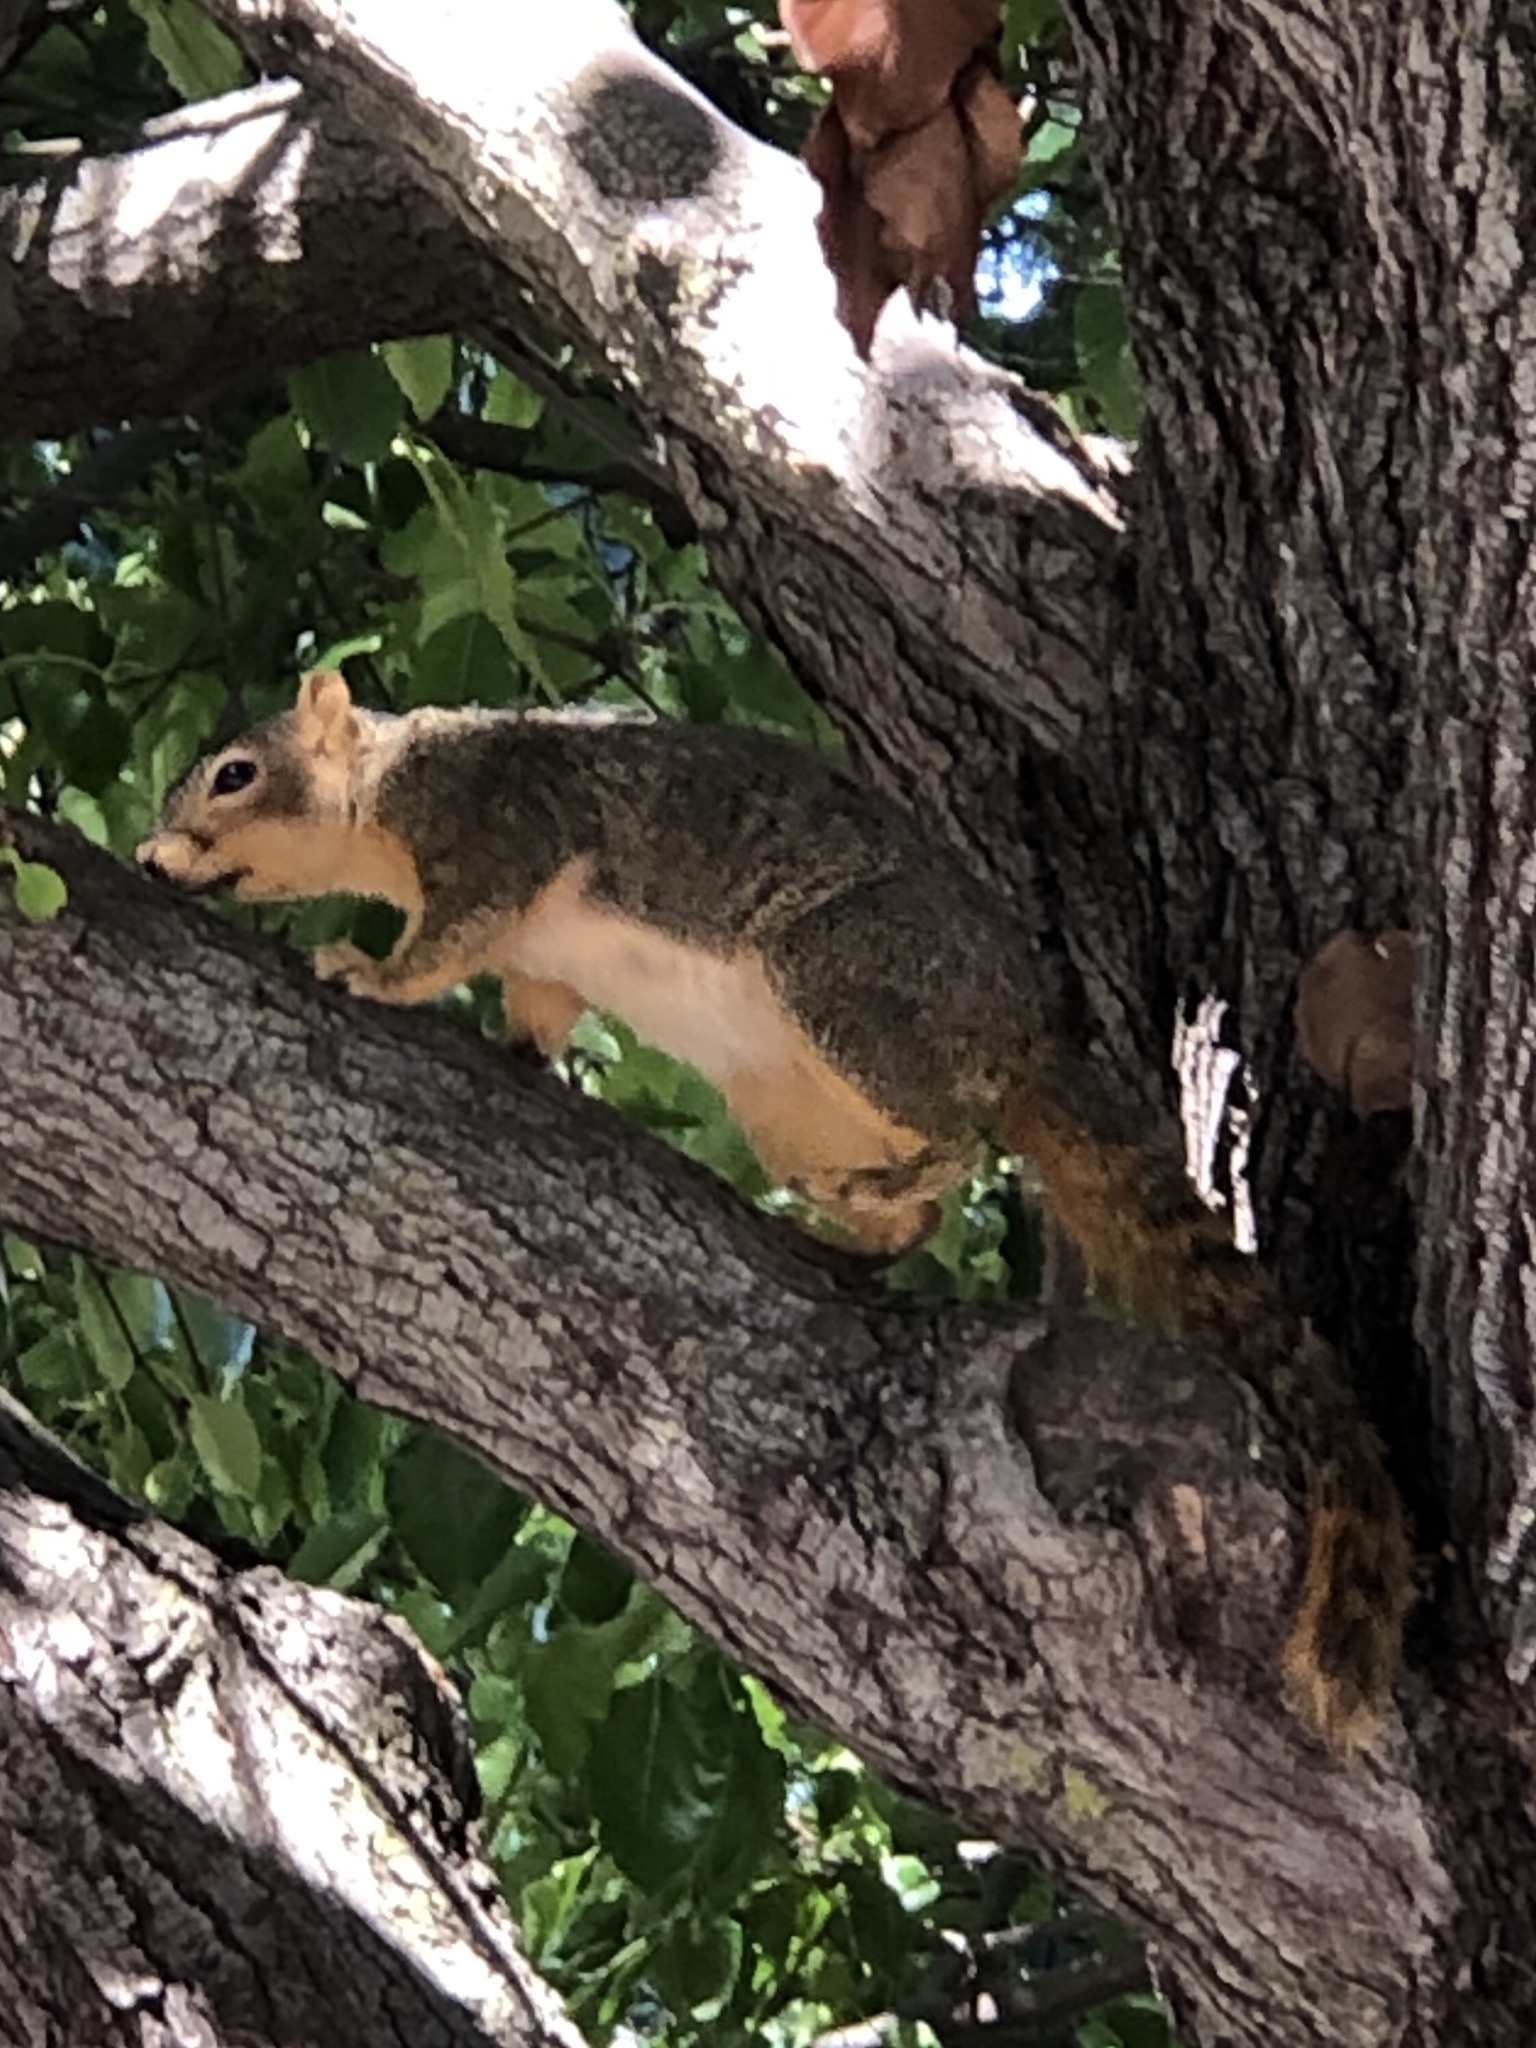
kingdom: Animalia
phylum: Chordata
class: Mammalia
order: Rodentia
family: Sciuridae
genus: Sciurus
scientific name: Sciurus niger
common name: Fox squirrel
